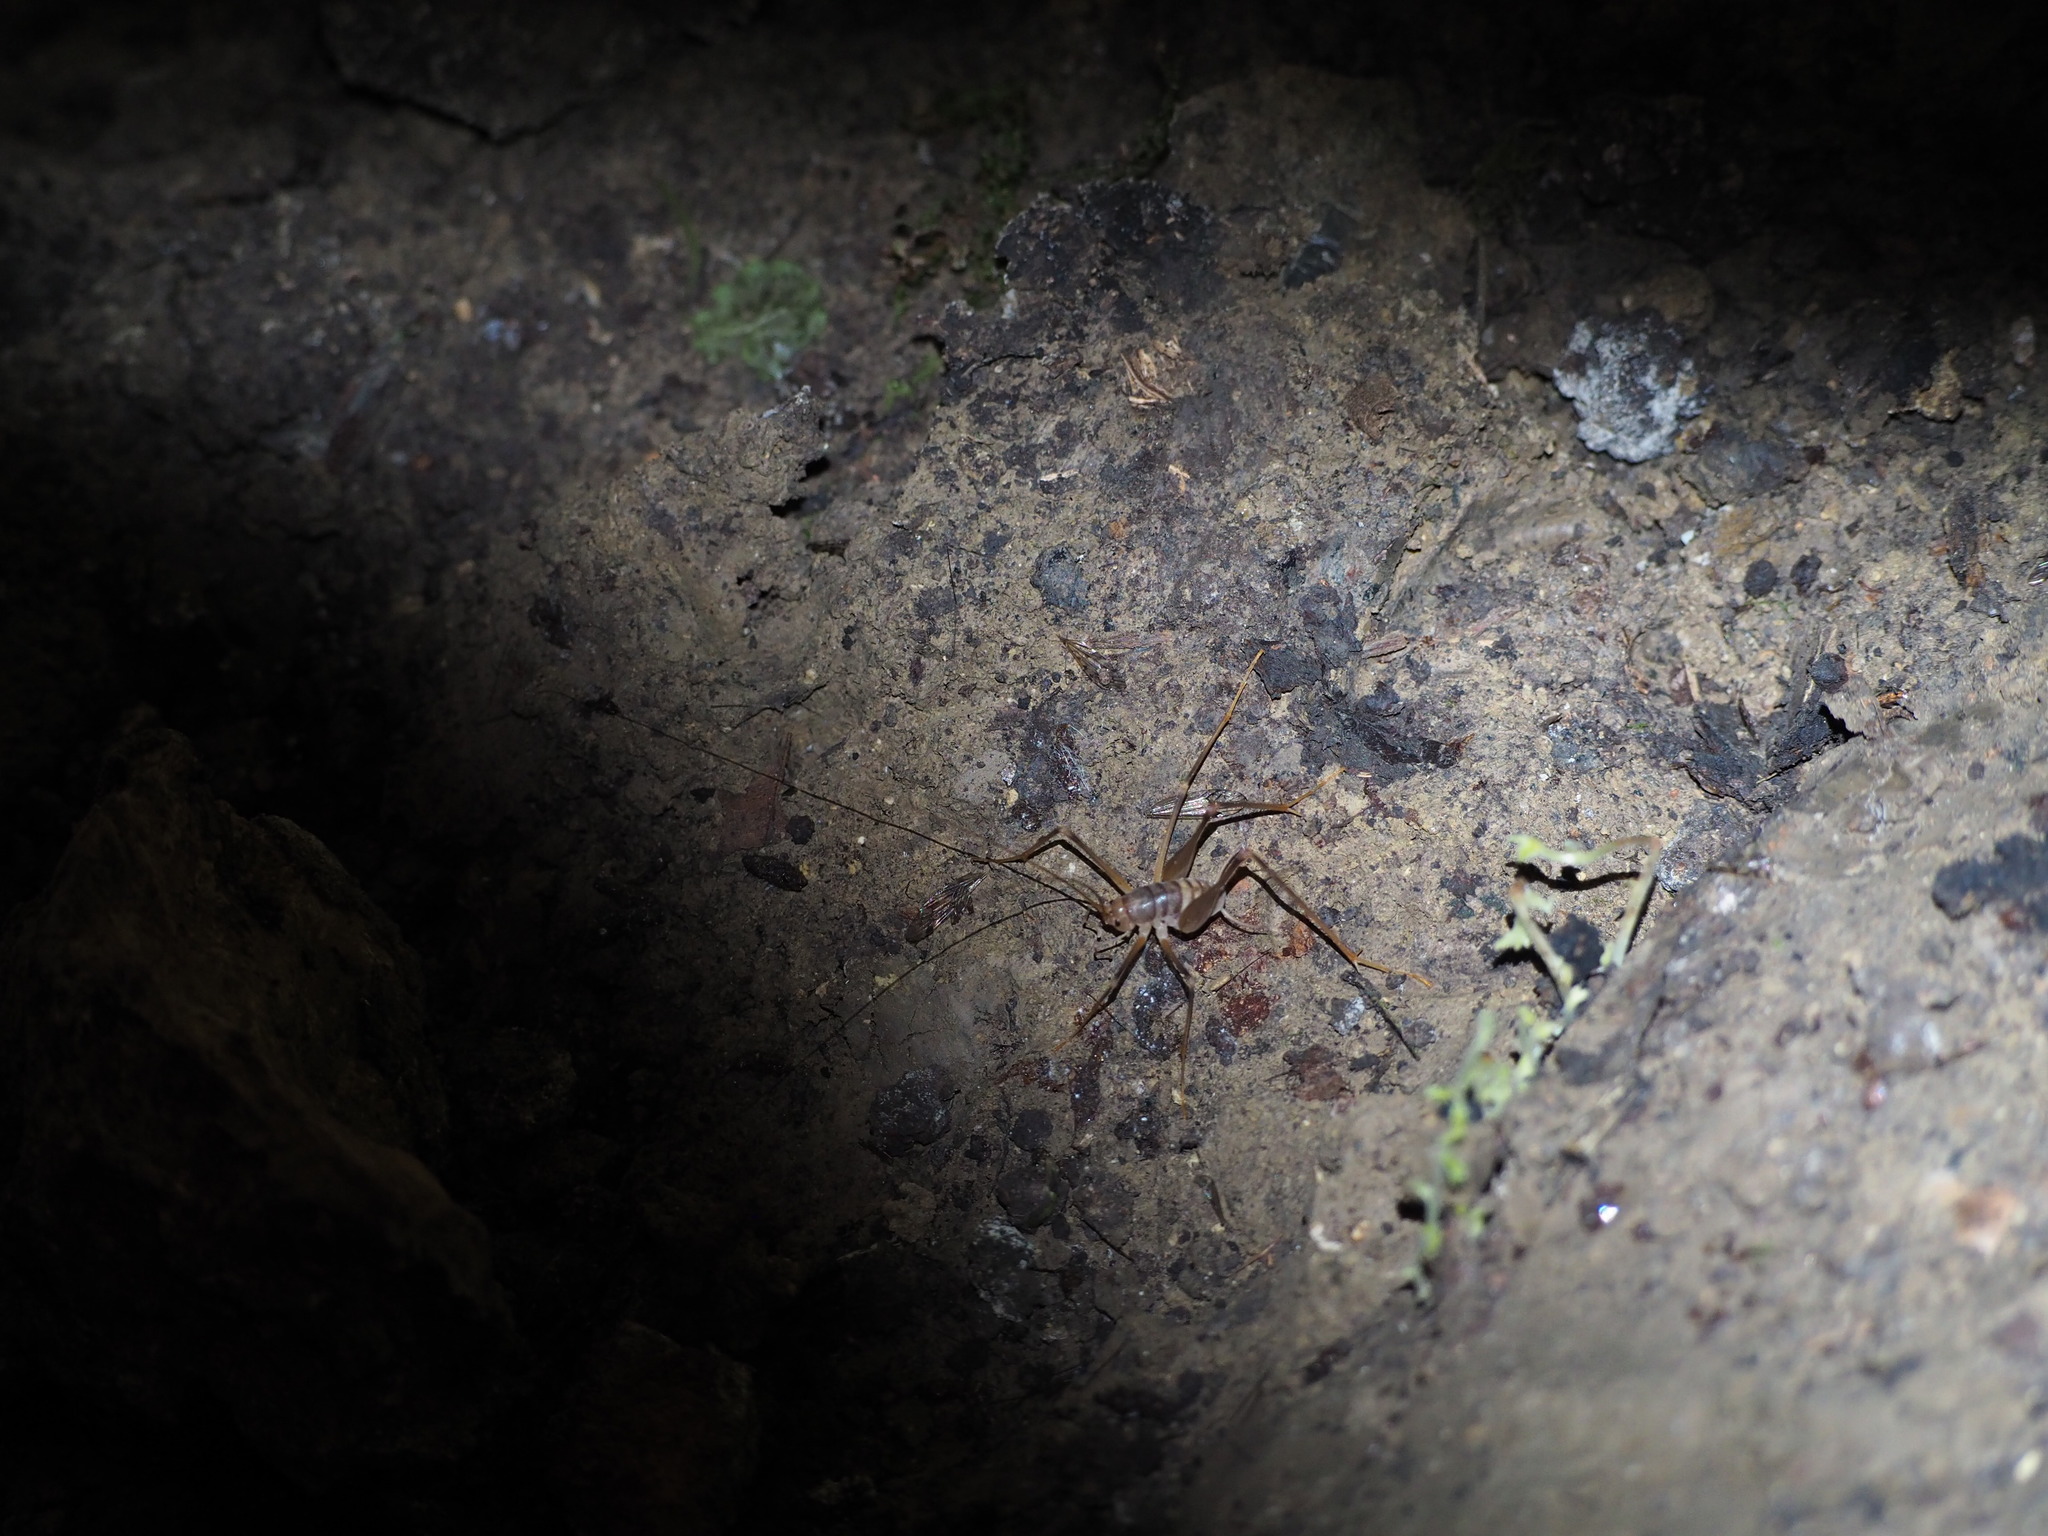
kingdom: Animalia
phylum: Arthropoda
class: Insecta
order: Orthoptera
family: Rhaphidophoridae
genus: Dolichopoda
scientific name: Dolichopoda laetitiae
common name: Laetitia's cave cricket
